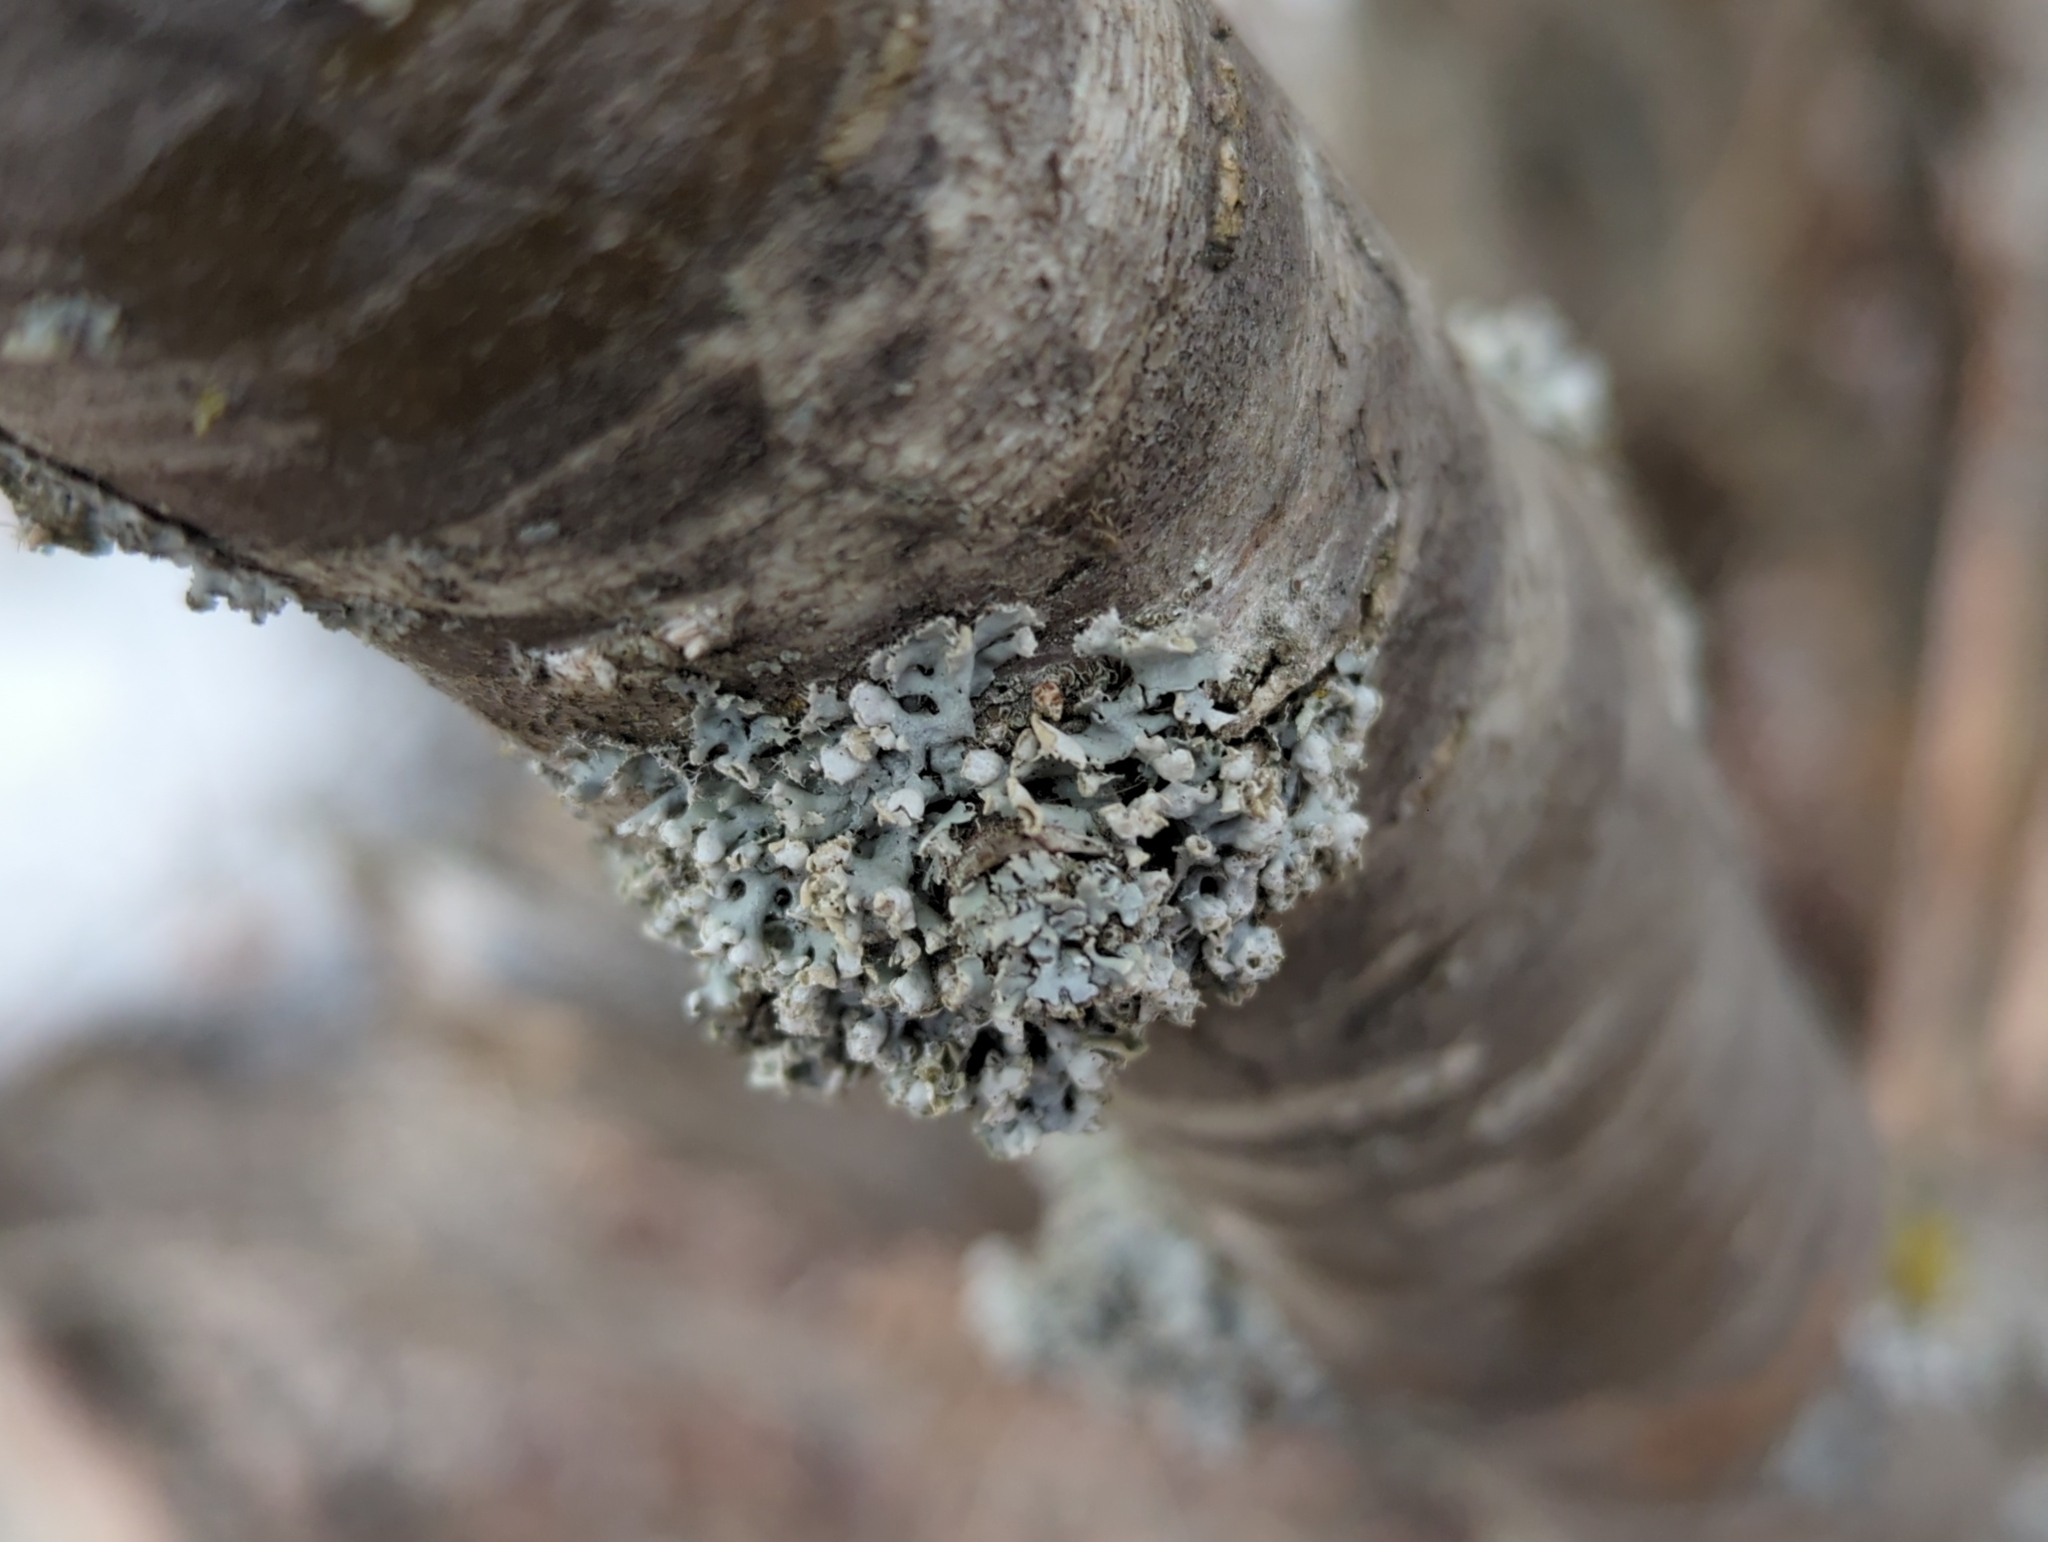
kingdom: Fungi
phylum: Ascomycota
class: Lecanoromycetes
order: Caliciales
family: Physciaceae
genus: Physcia
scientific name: Physcia adscendens
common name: Hooded rosette lichen
